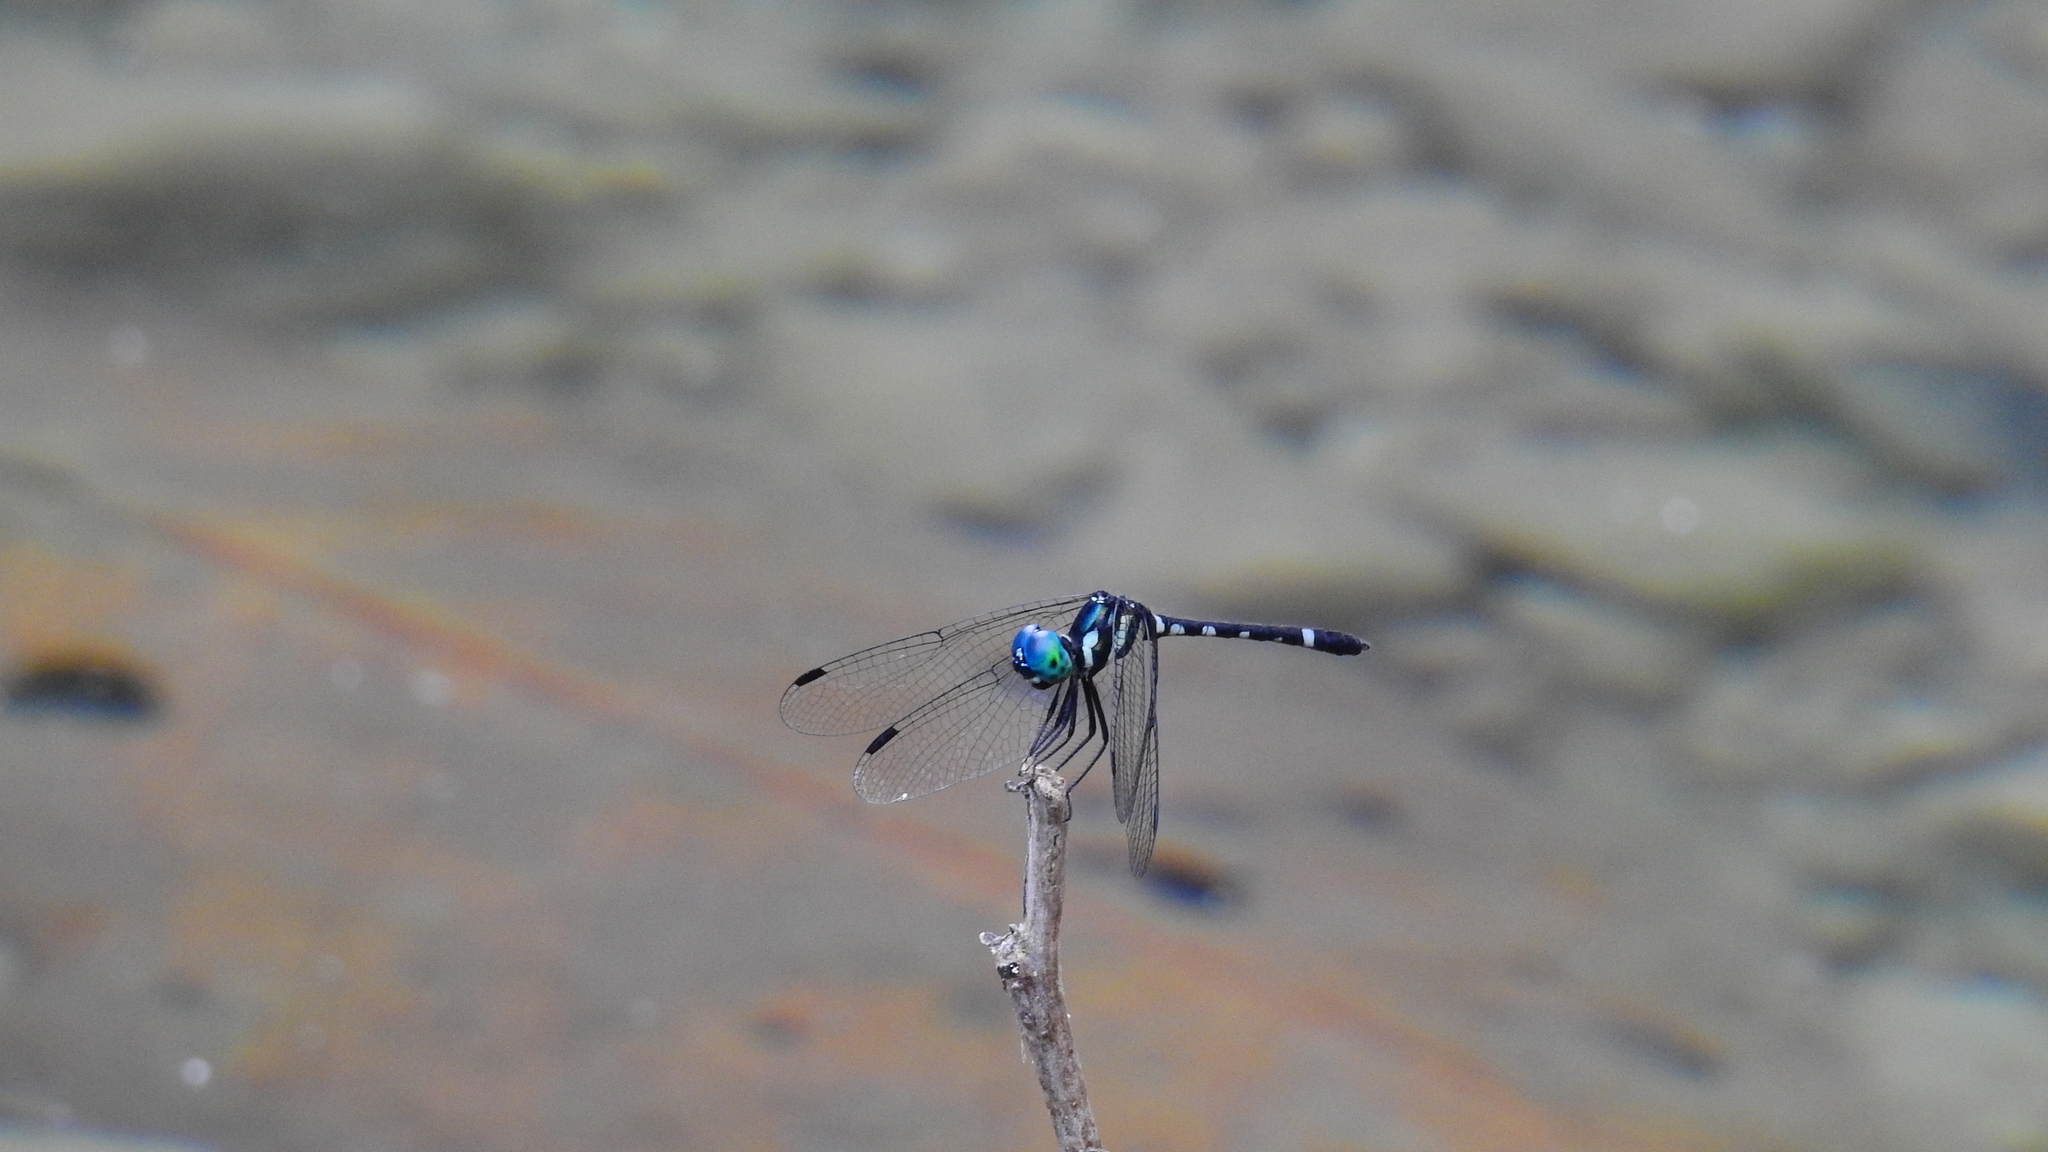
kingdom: Animalia
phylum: Arthropoda
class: Insecta
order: Odonata
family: Libellulidae
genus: Tetrathemis
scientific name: Tetrathemis leptoptera
